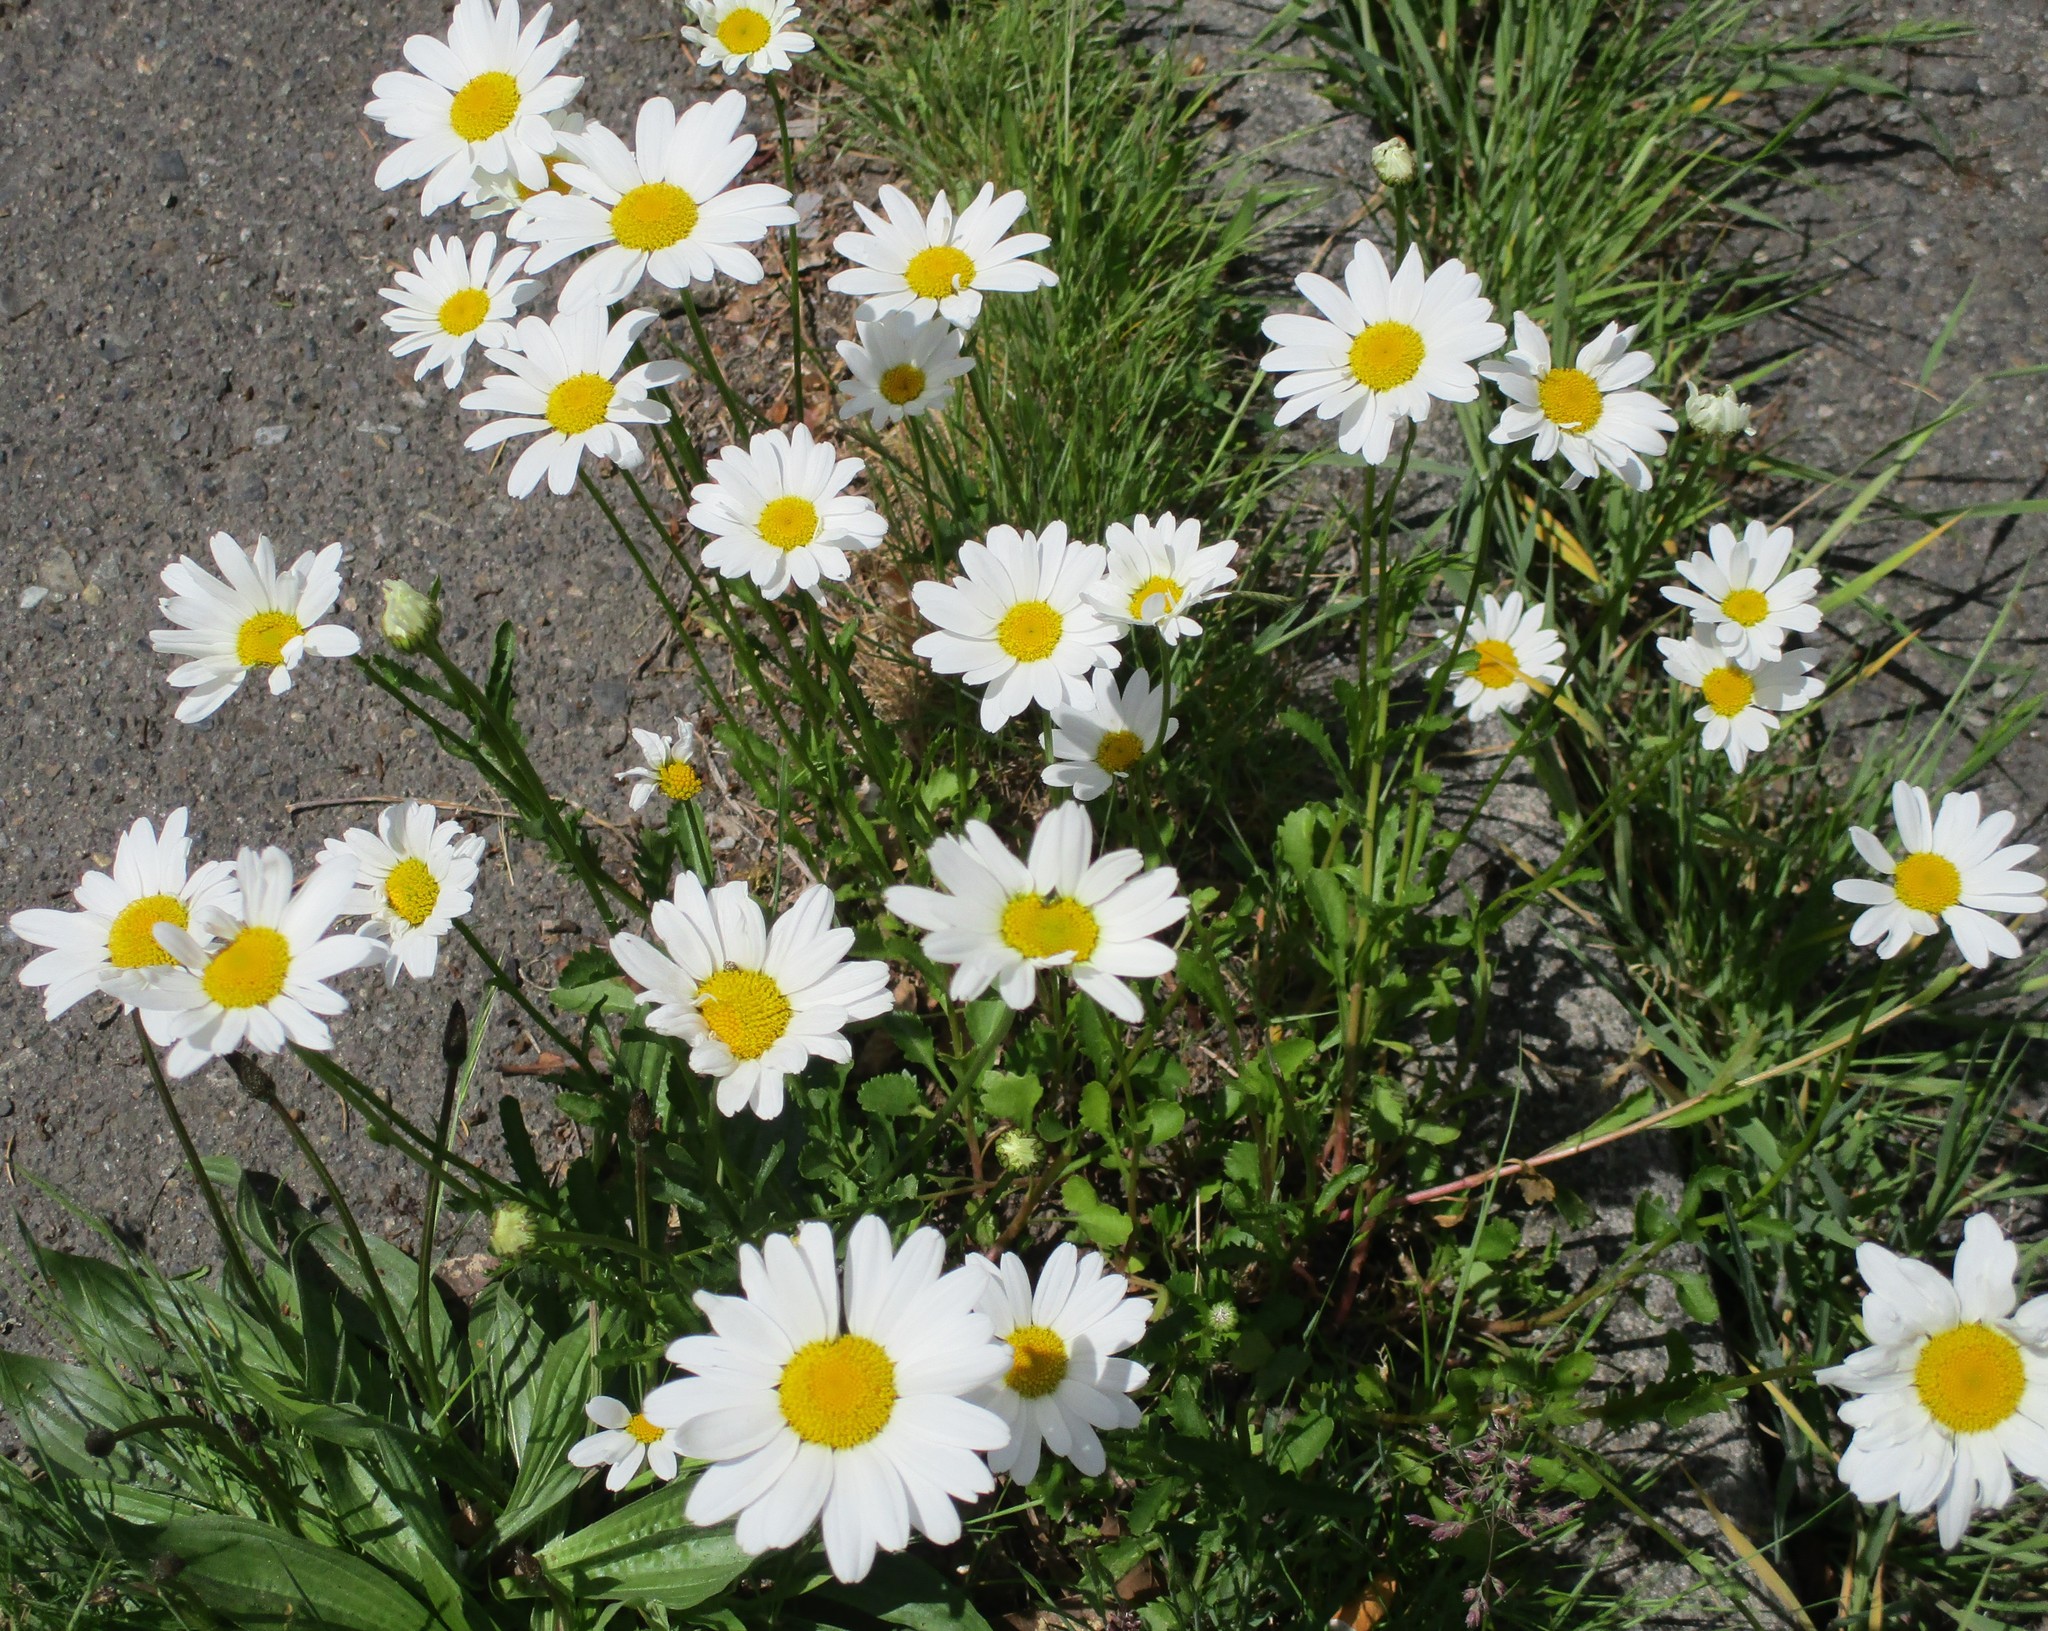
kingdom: Plantae
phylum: Tracheophyta
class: Magnoliopsida
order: Asterales
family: Asteraceae
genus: Leucanthemum
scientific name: Leucanthemum vulgare
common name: Oxeye daisy
